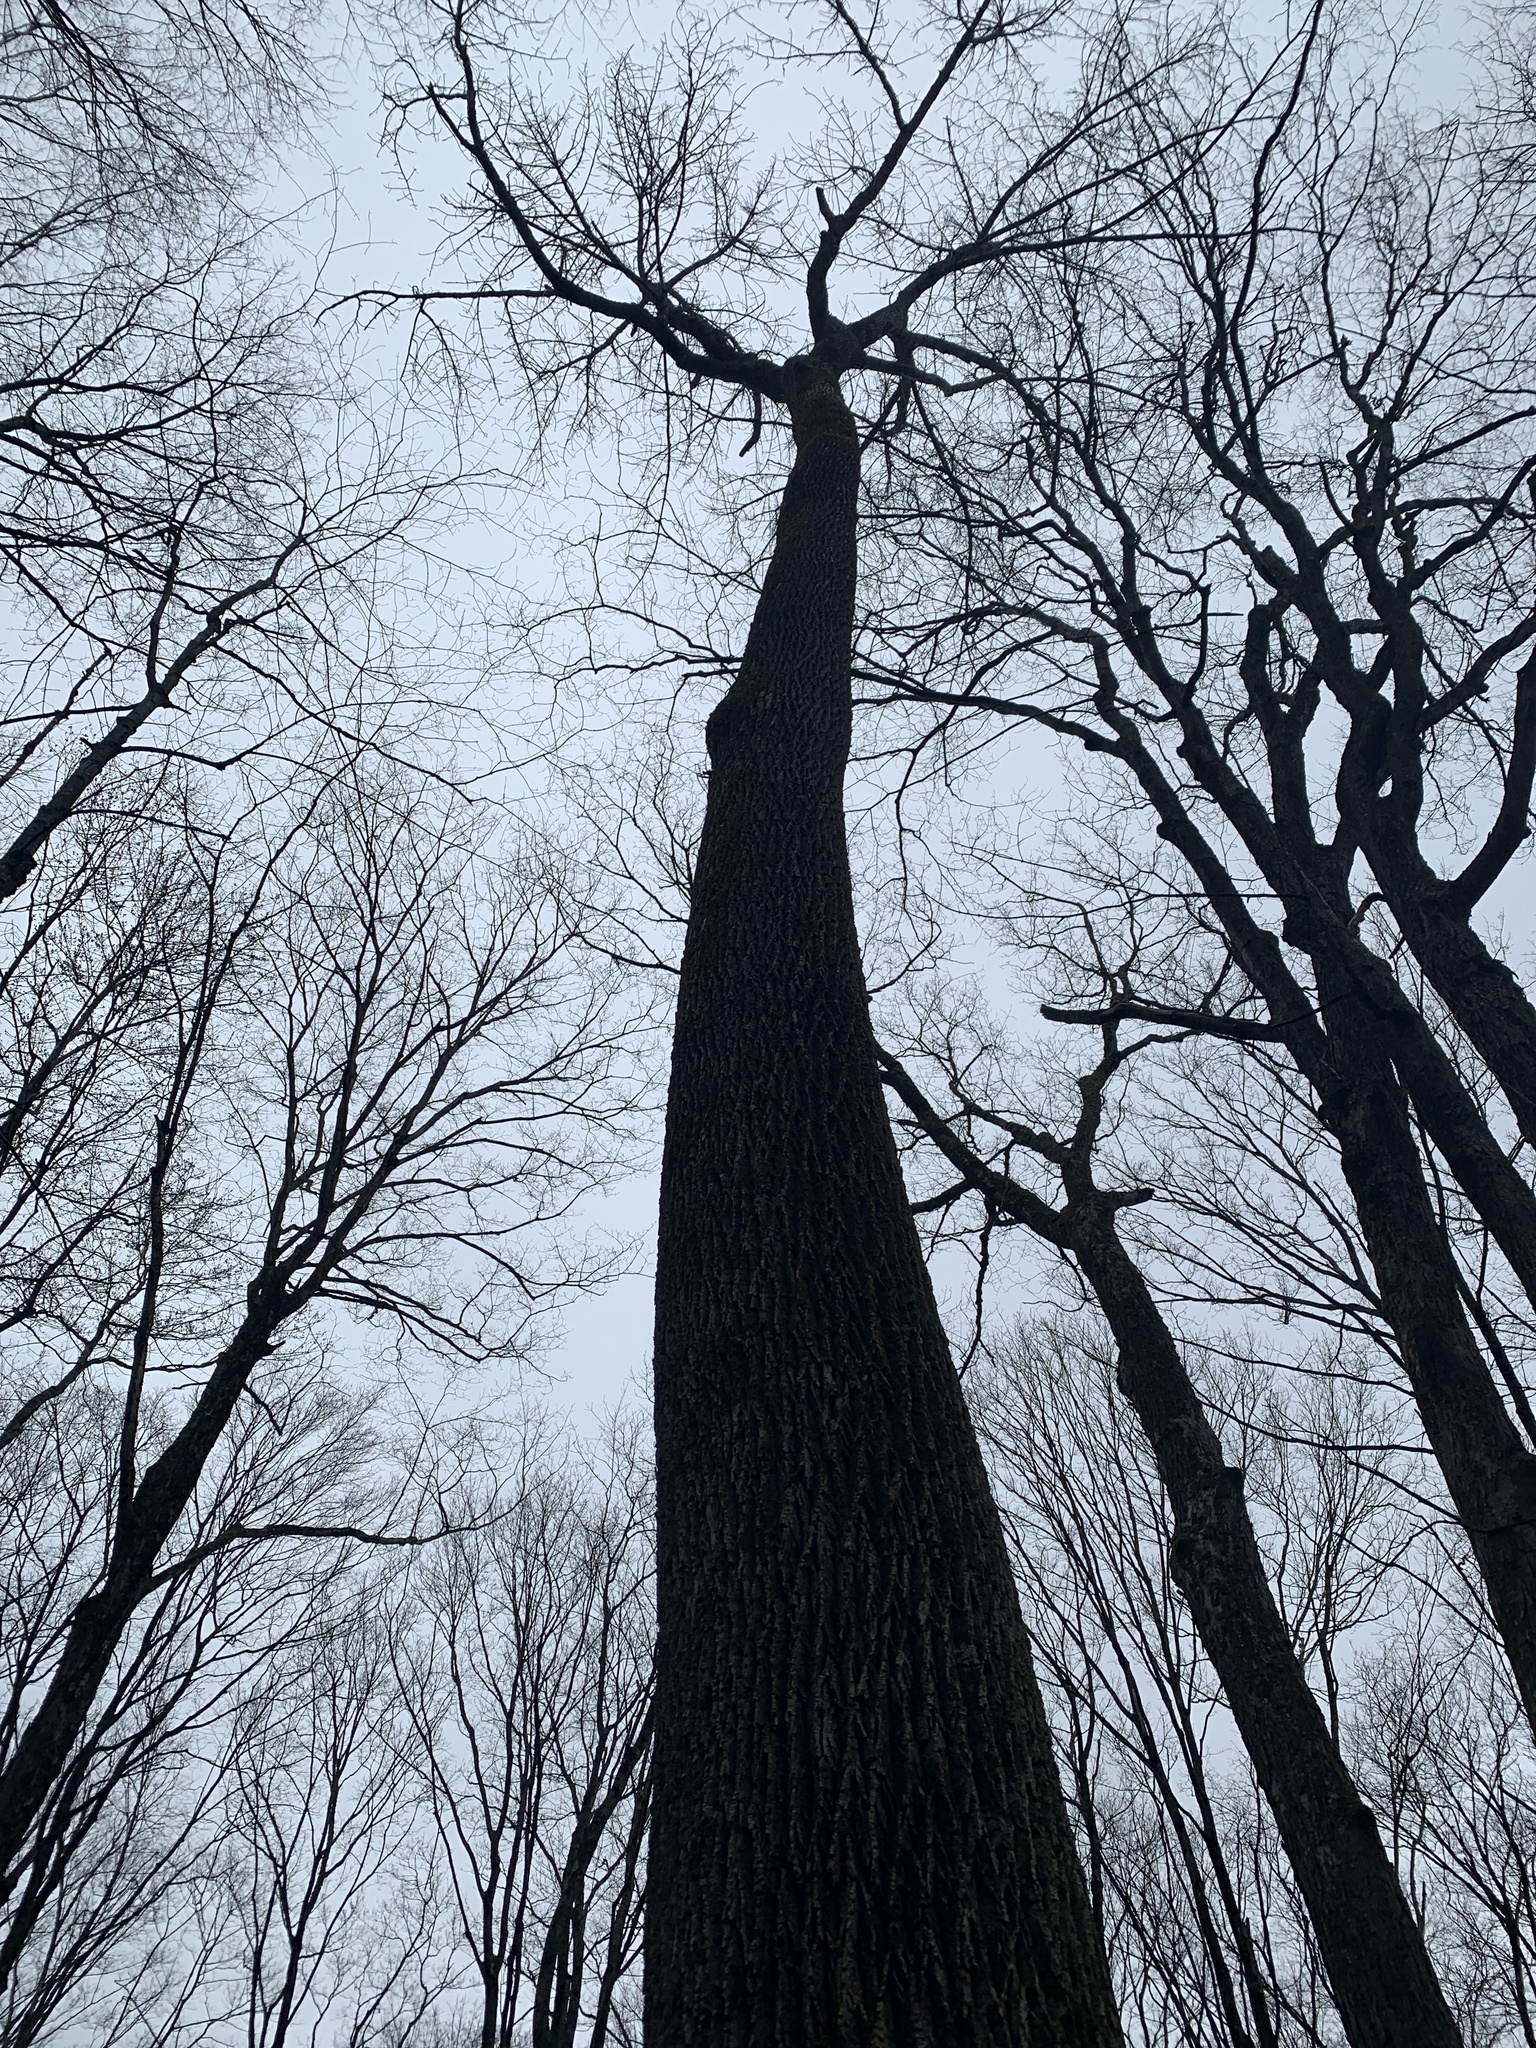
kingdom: Plantae
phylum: Tracheophyta
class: Magnoliopsida
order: Lamiales
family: Oleaceae
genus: Fraxinus
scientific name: Fraxinus americana
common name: White ash
